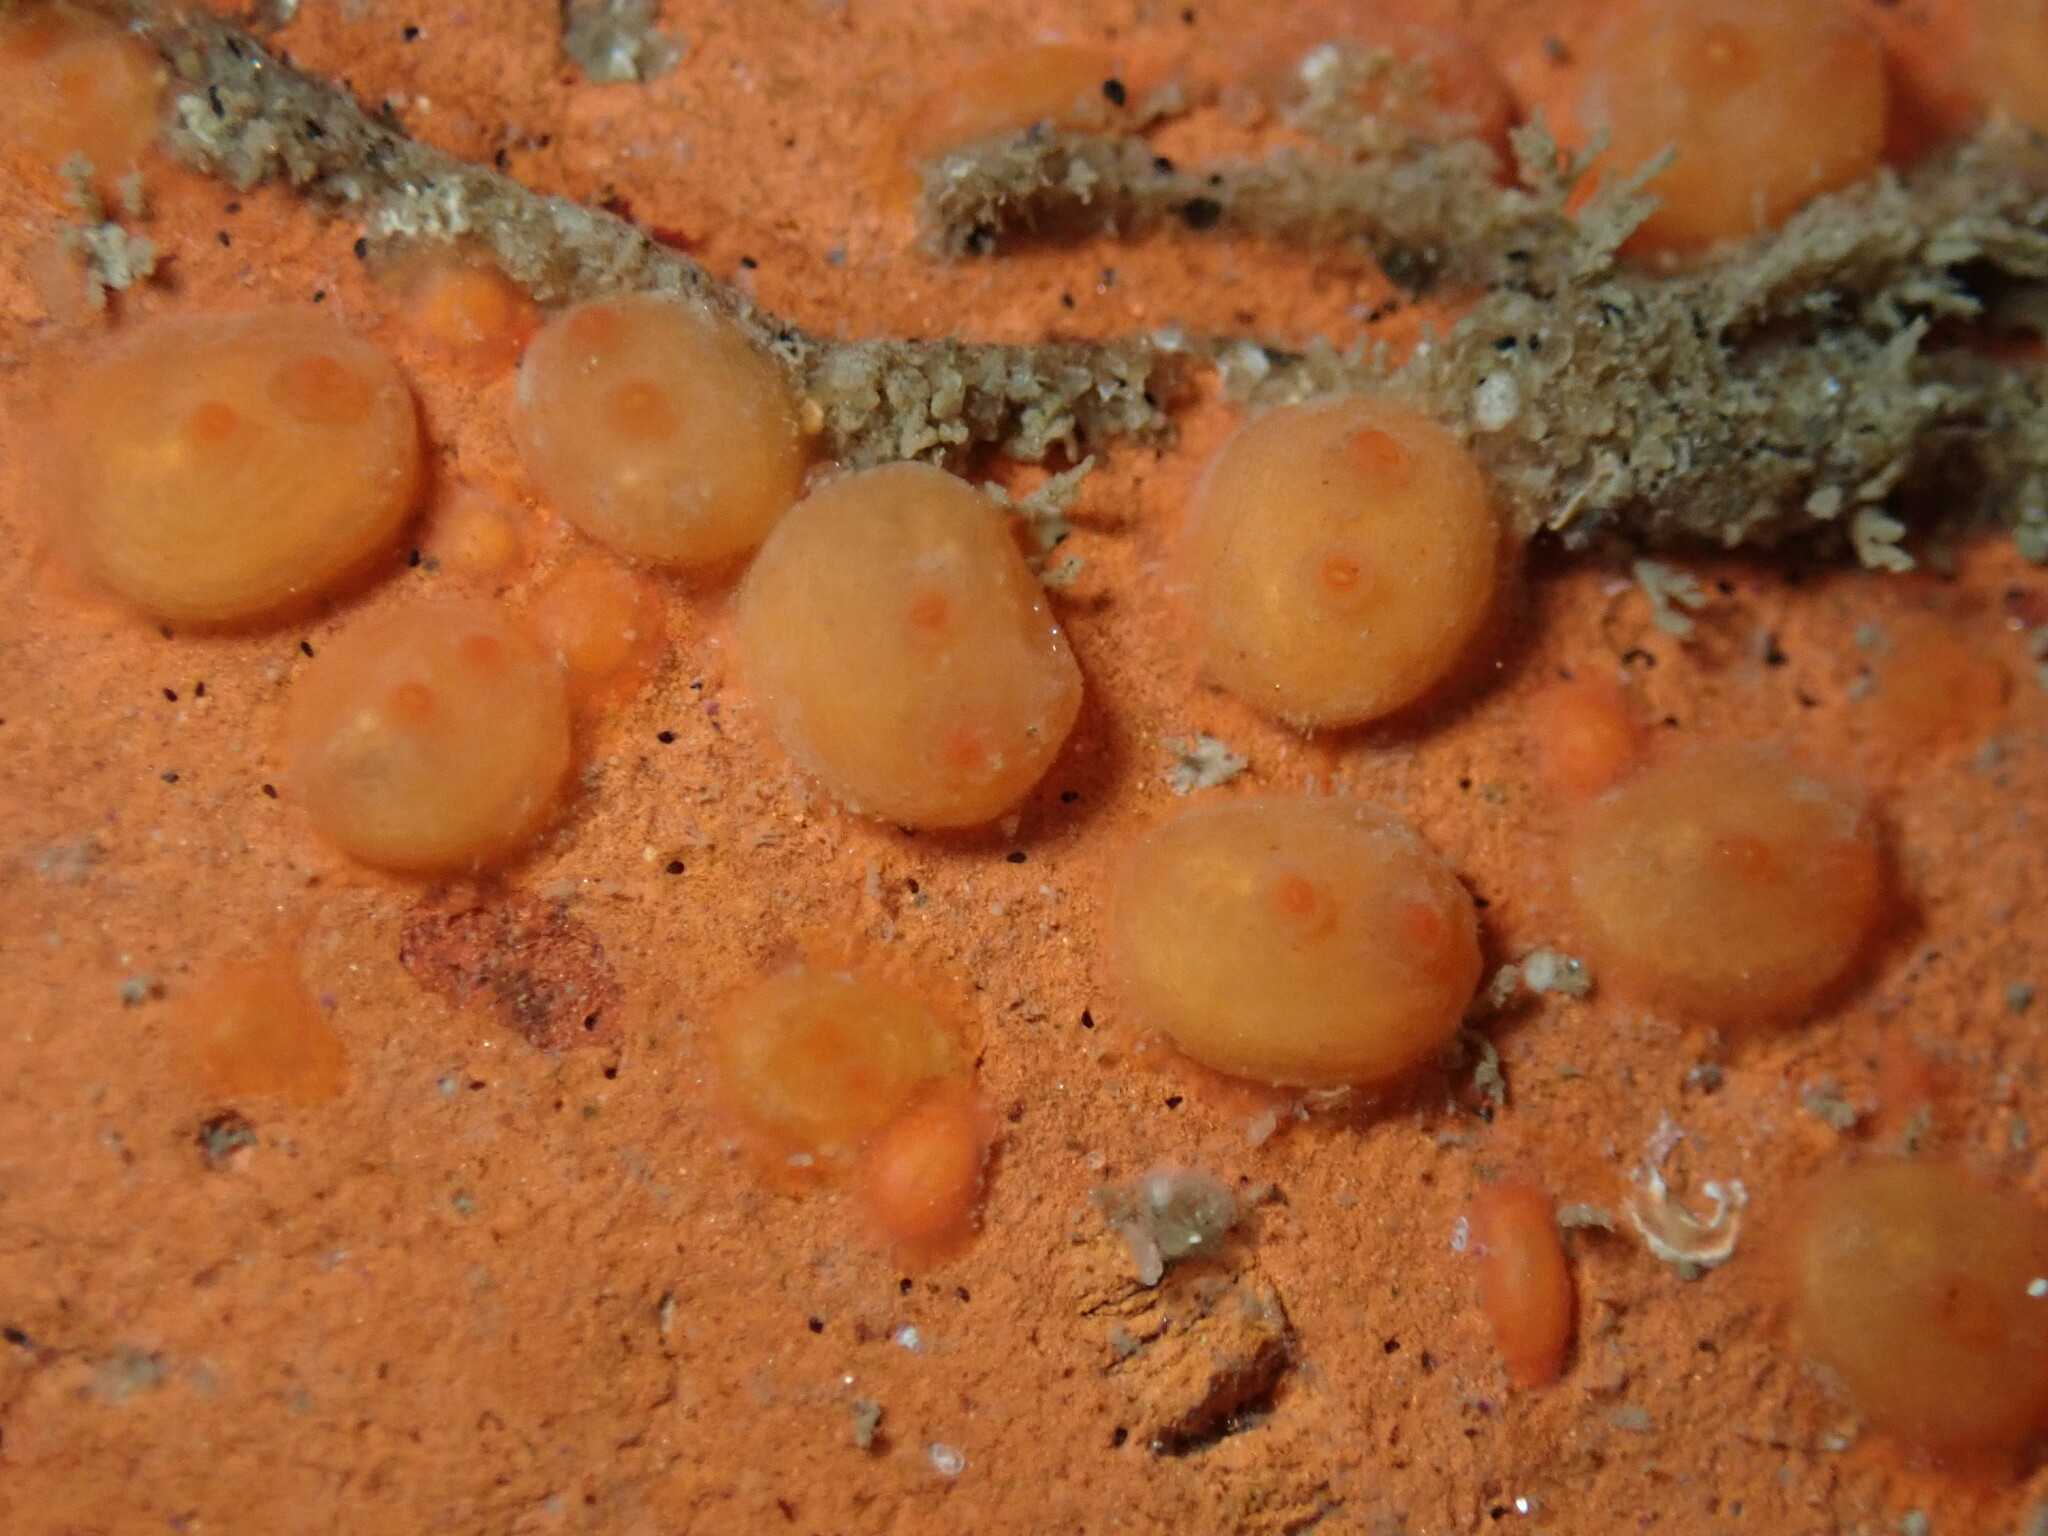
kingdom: Animalia
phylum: Chordata
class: Ascidiacea
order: Stolidobranchia
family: Styelidae
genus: Metandrocarpa
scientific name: Metandrocarpa taylori
